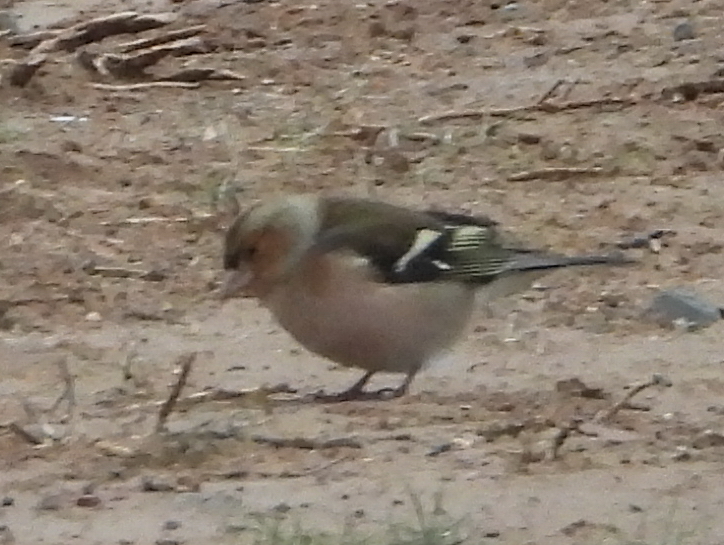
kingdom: Animalia
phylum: Chordata
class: Aves
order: Passeriformes
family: Fringillidae
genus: Fringilla
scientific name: Fringilla coelebs
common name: Common chaffinch
